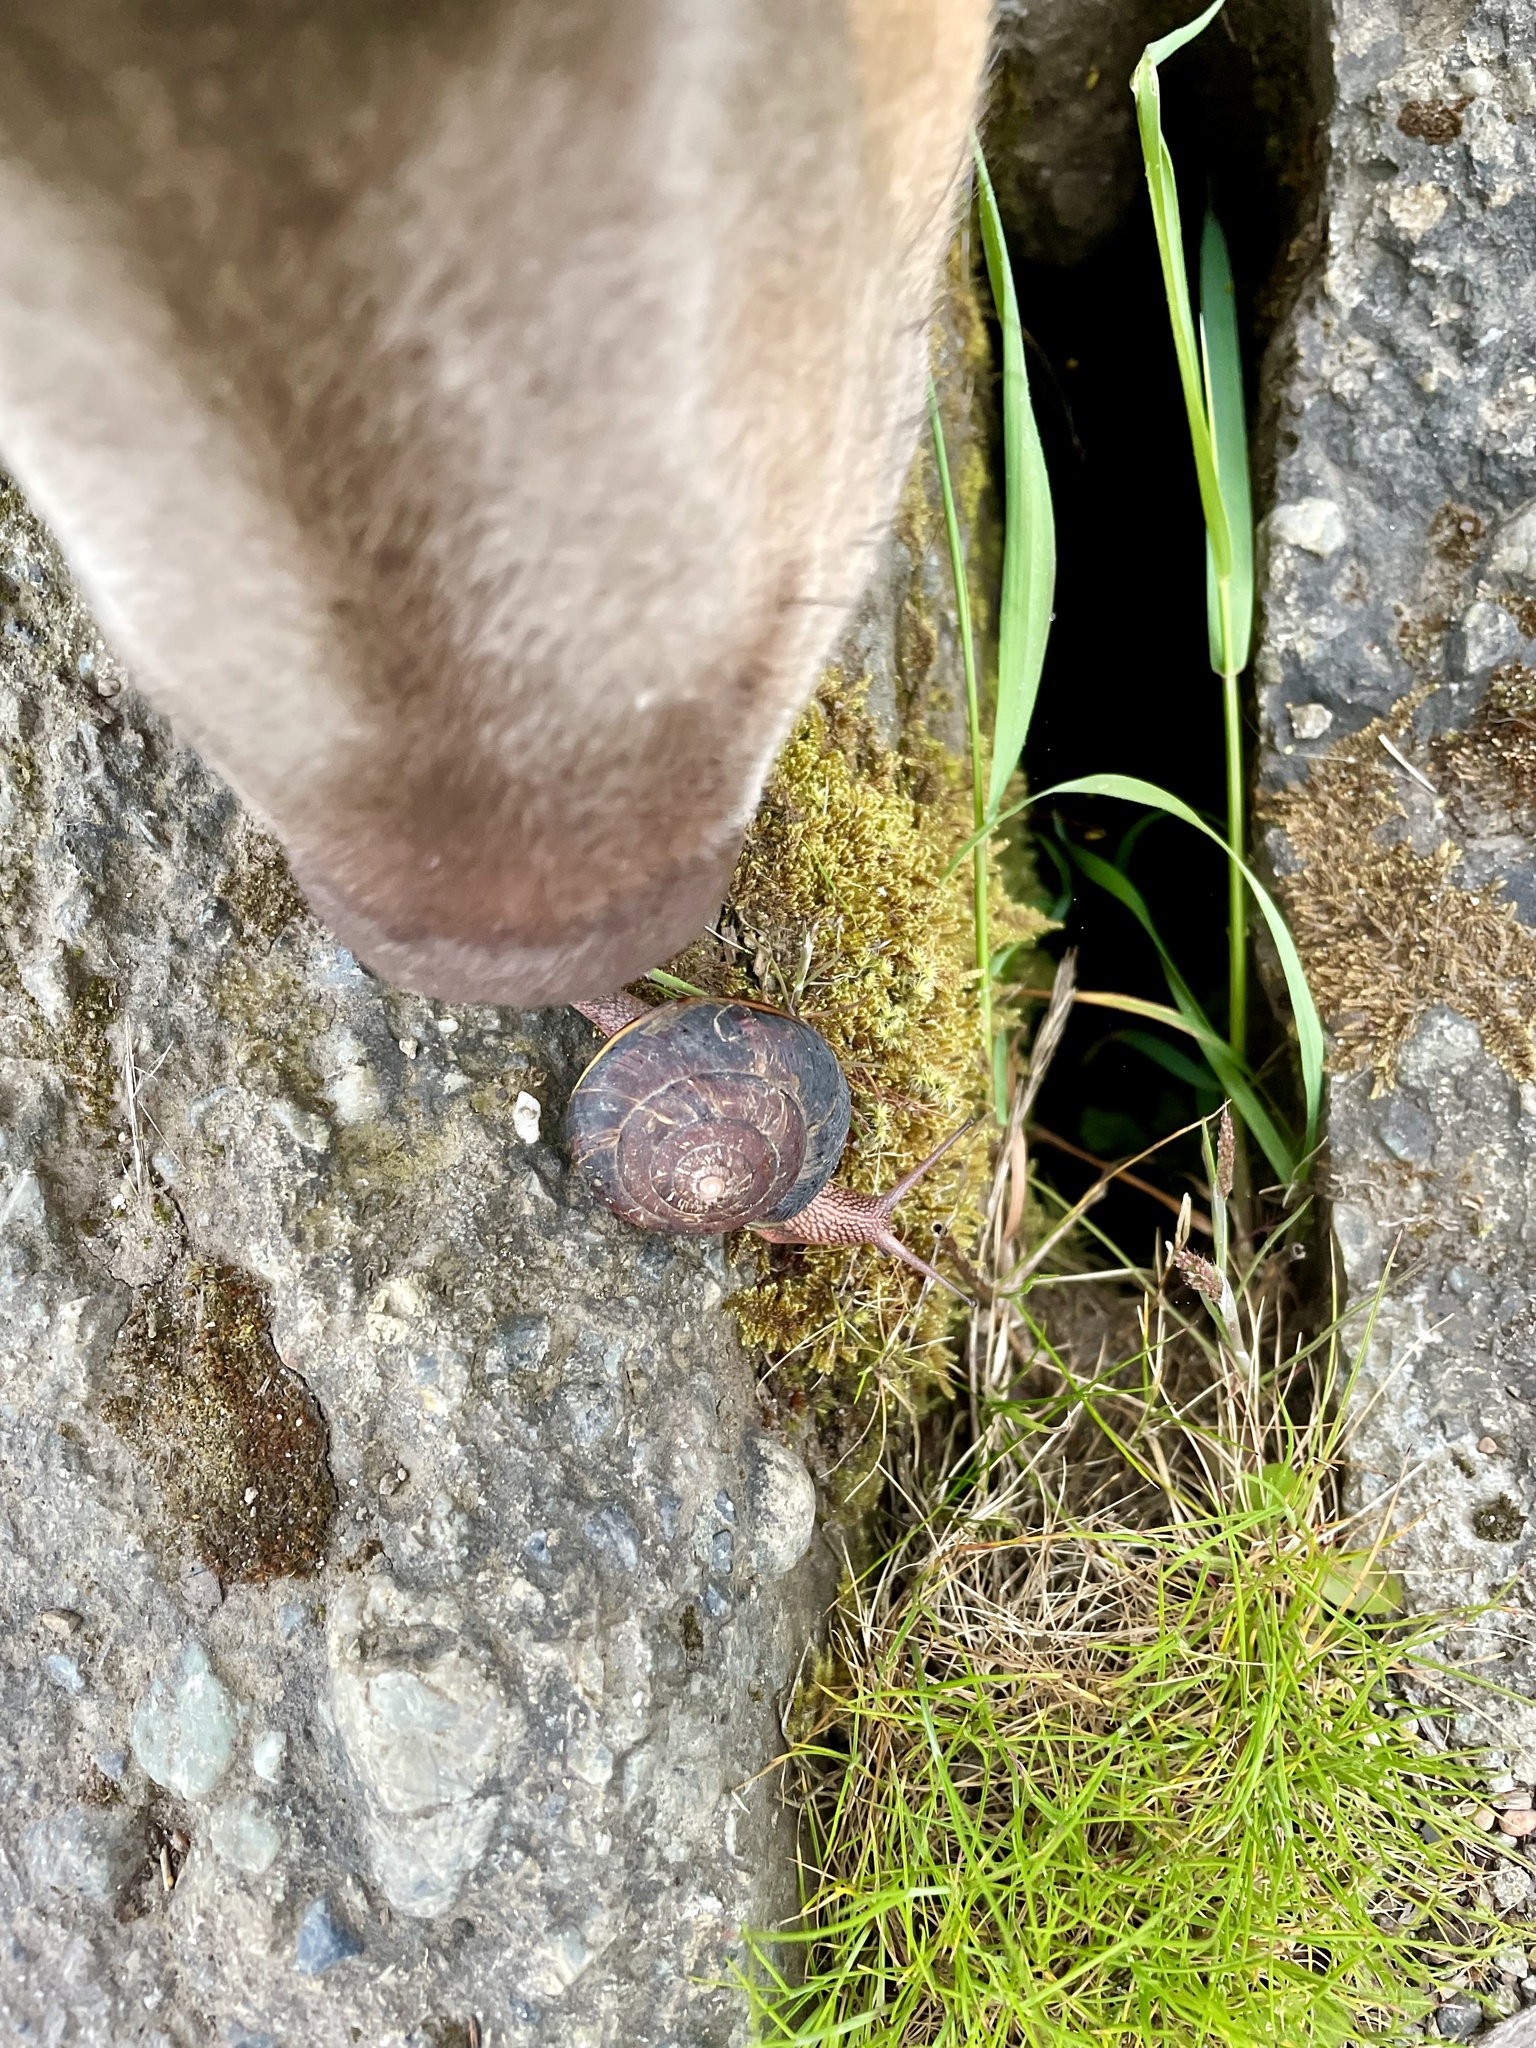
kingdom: Animalia
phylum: Mollusca
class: Gastropoda
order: Stylommatophora
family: Xanthonychidae
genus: Monadenia
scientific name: Monadenia fidelis
